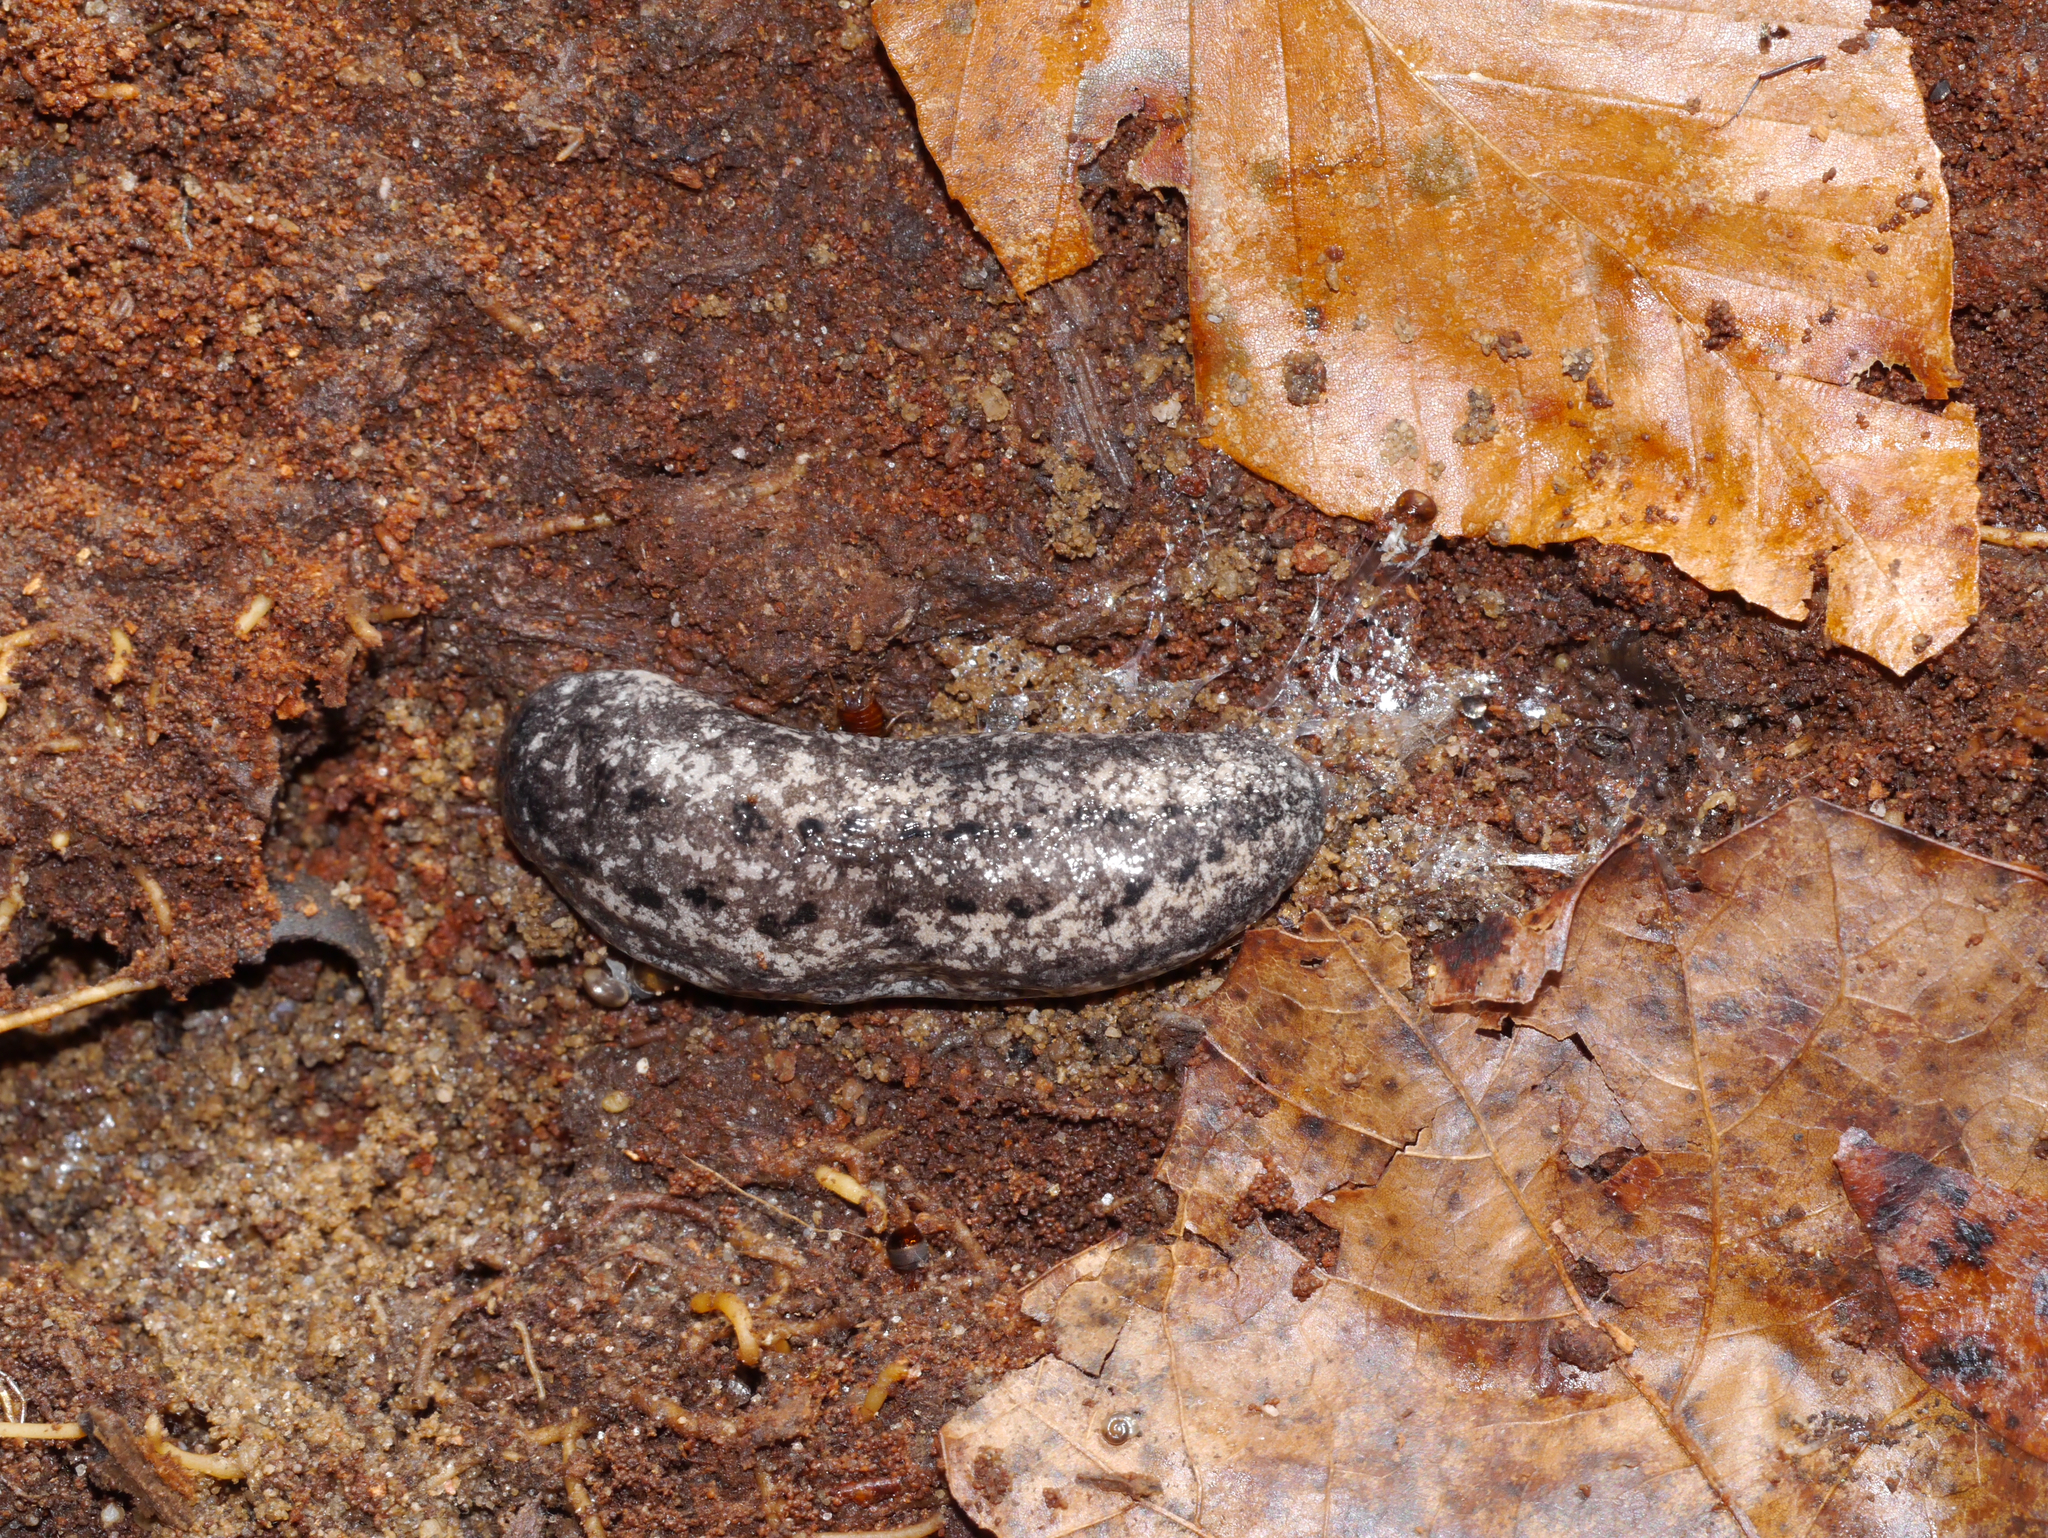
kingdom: Animalia
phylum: Mollusca
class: Gastropoda
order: Stylommatophora
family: Philomycidae
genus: Philomycus
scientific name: Philomycus carolinianus
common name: Carolina mantleslug
